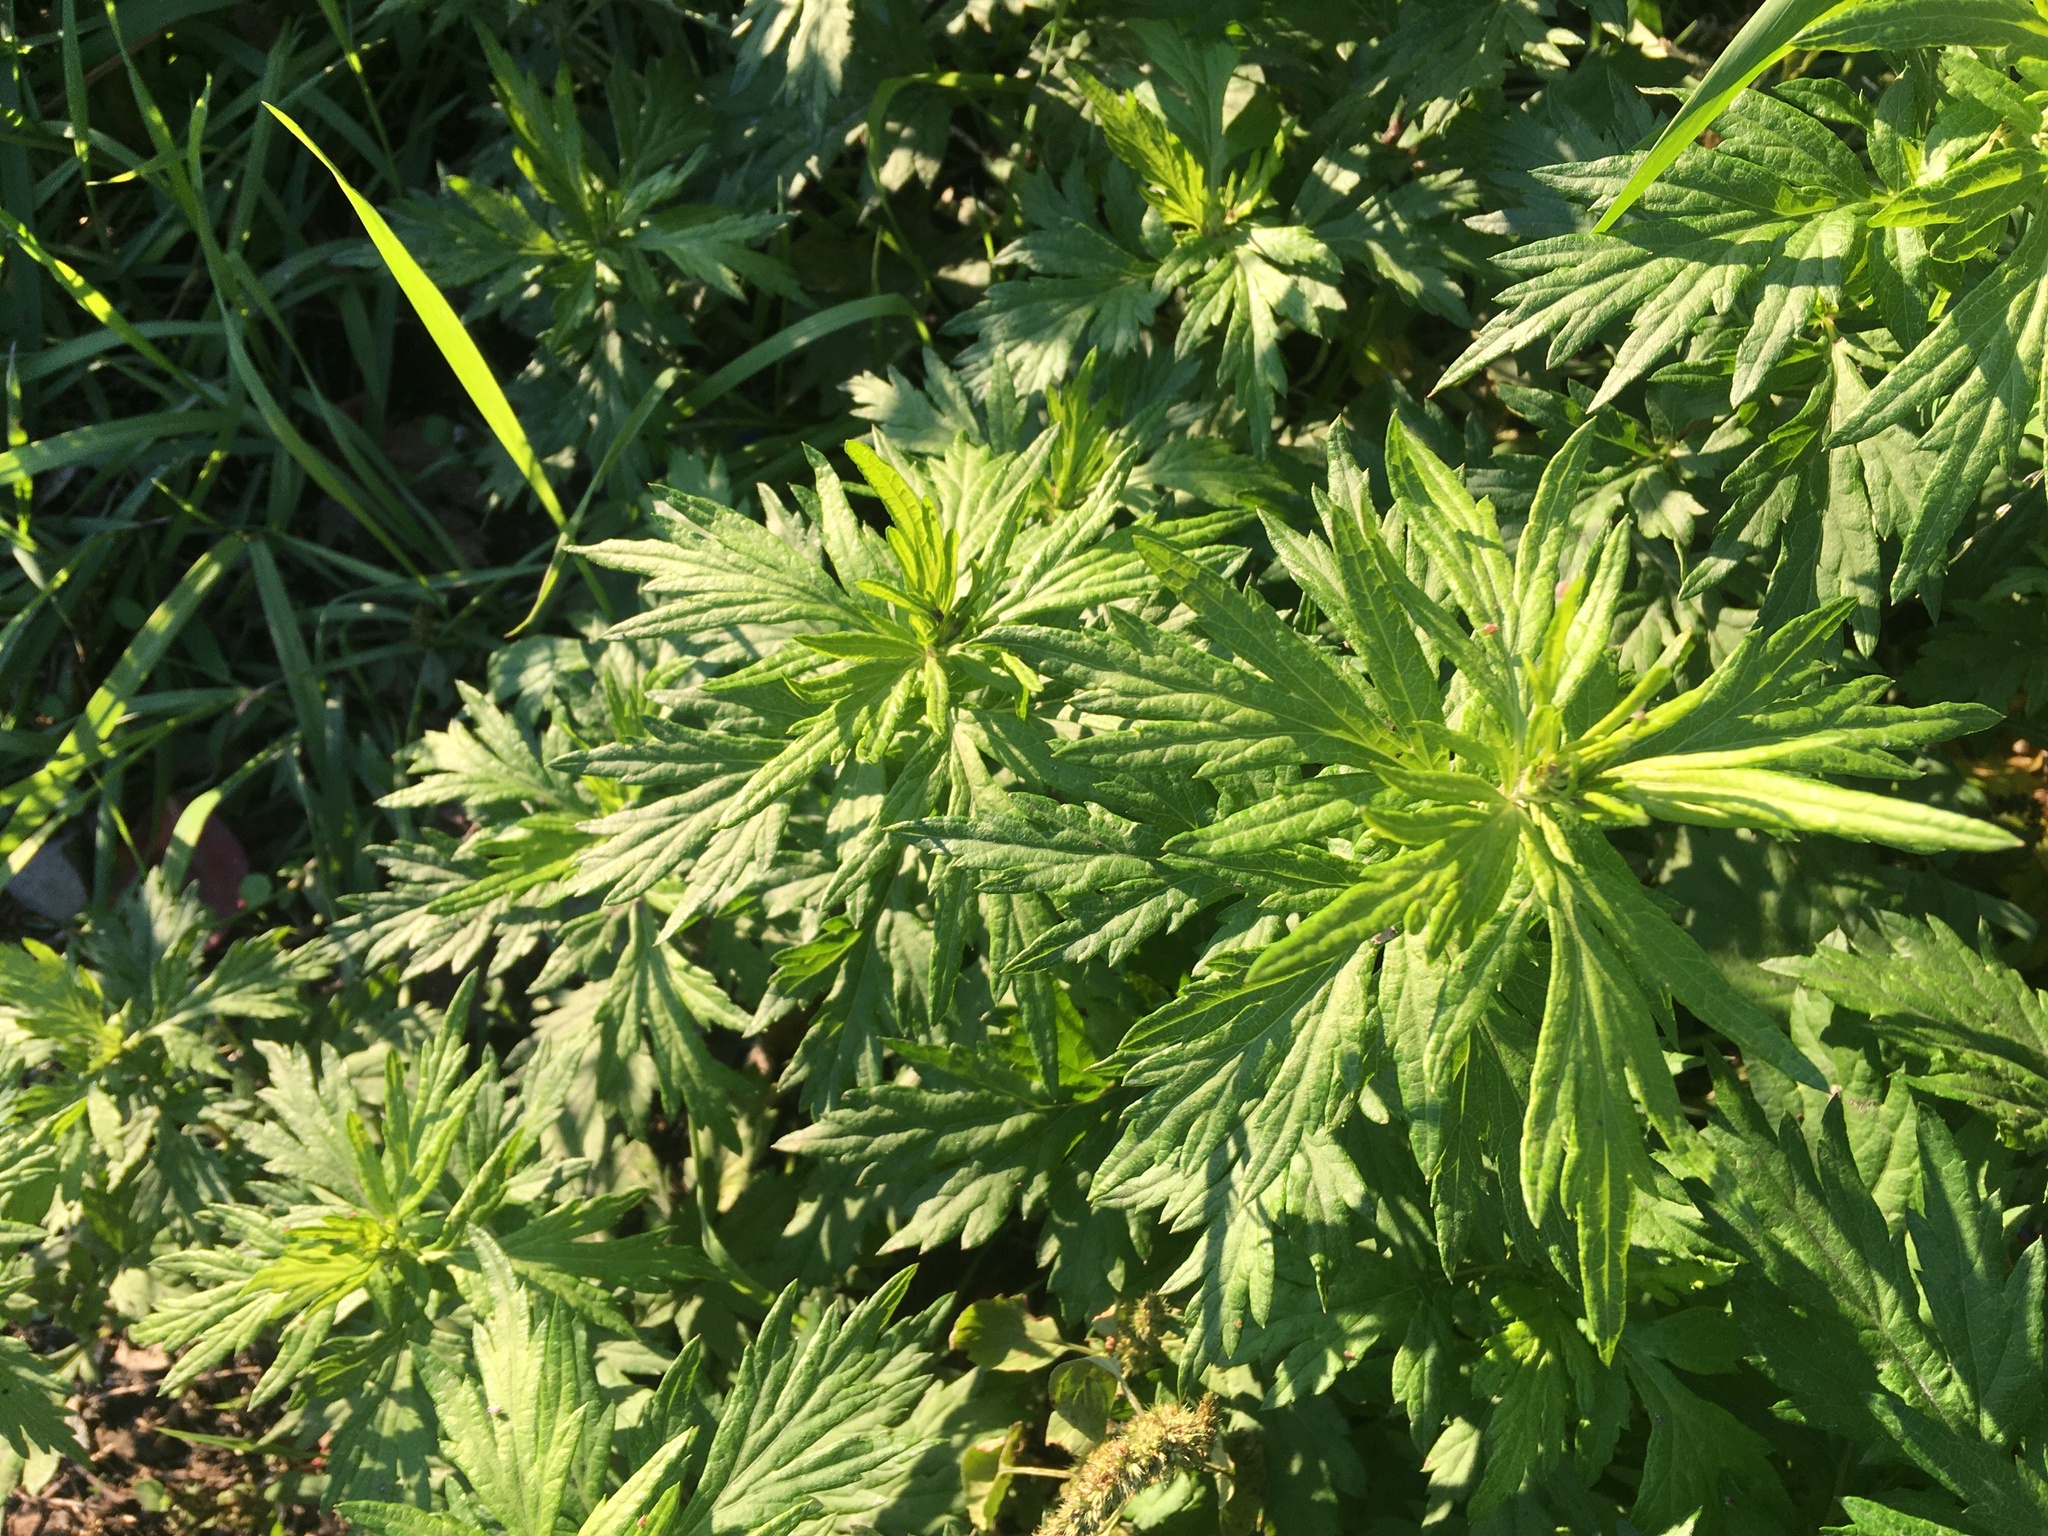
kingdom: Plantae
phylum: Tracheophyta
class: Magnoliopsida
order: Asterales
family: Asteraceae
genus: Artemisia
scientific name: Artemisia vulgaris
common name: Mugwort
